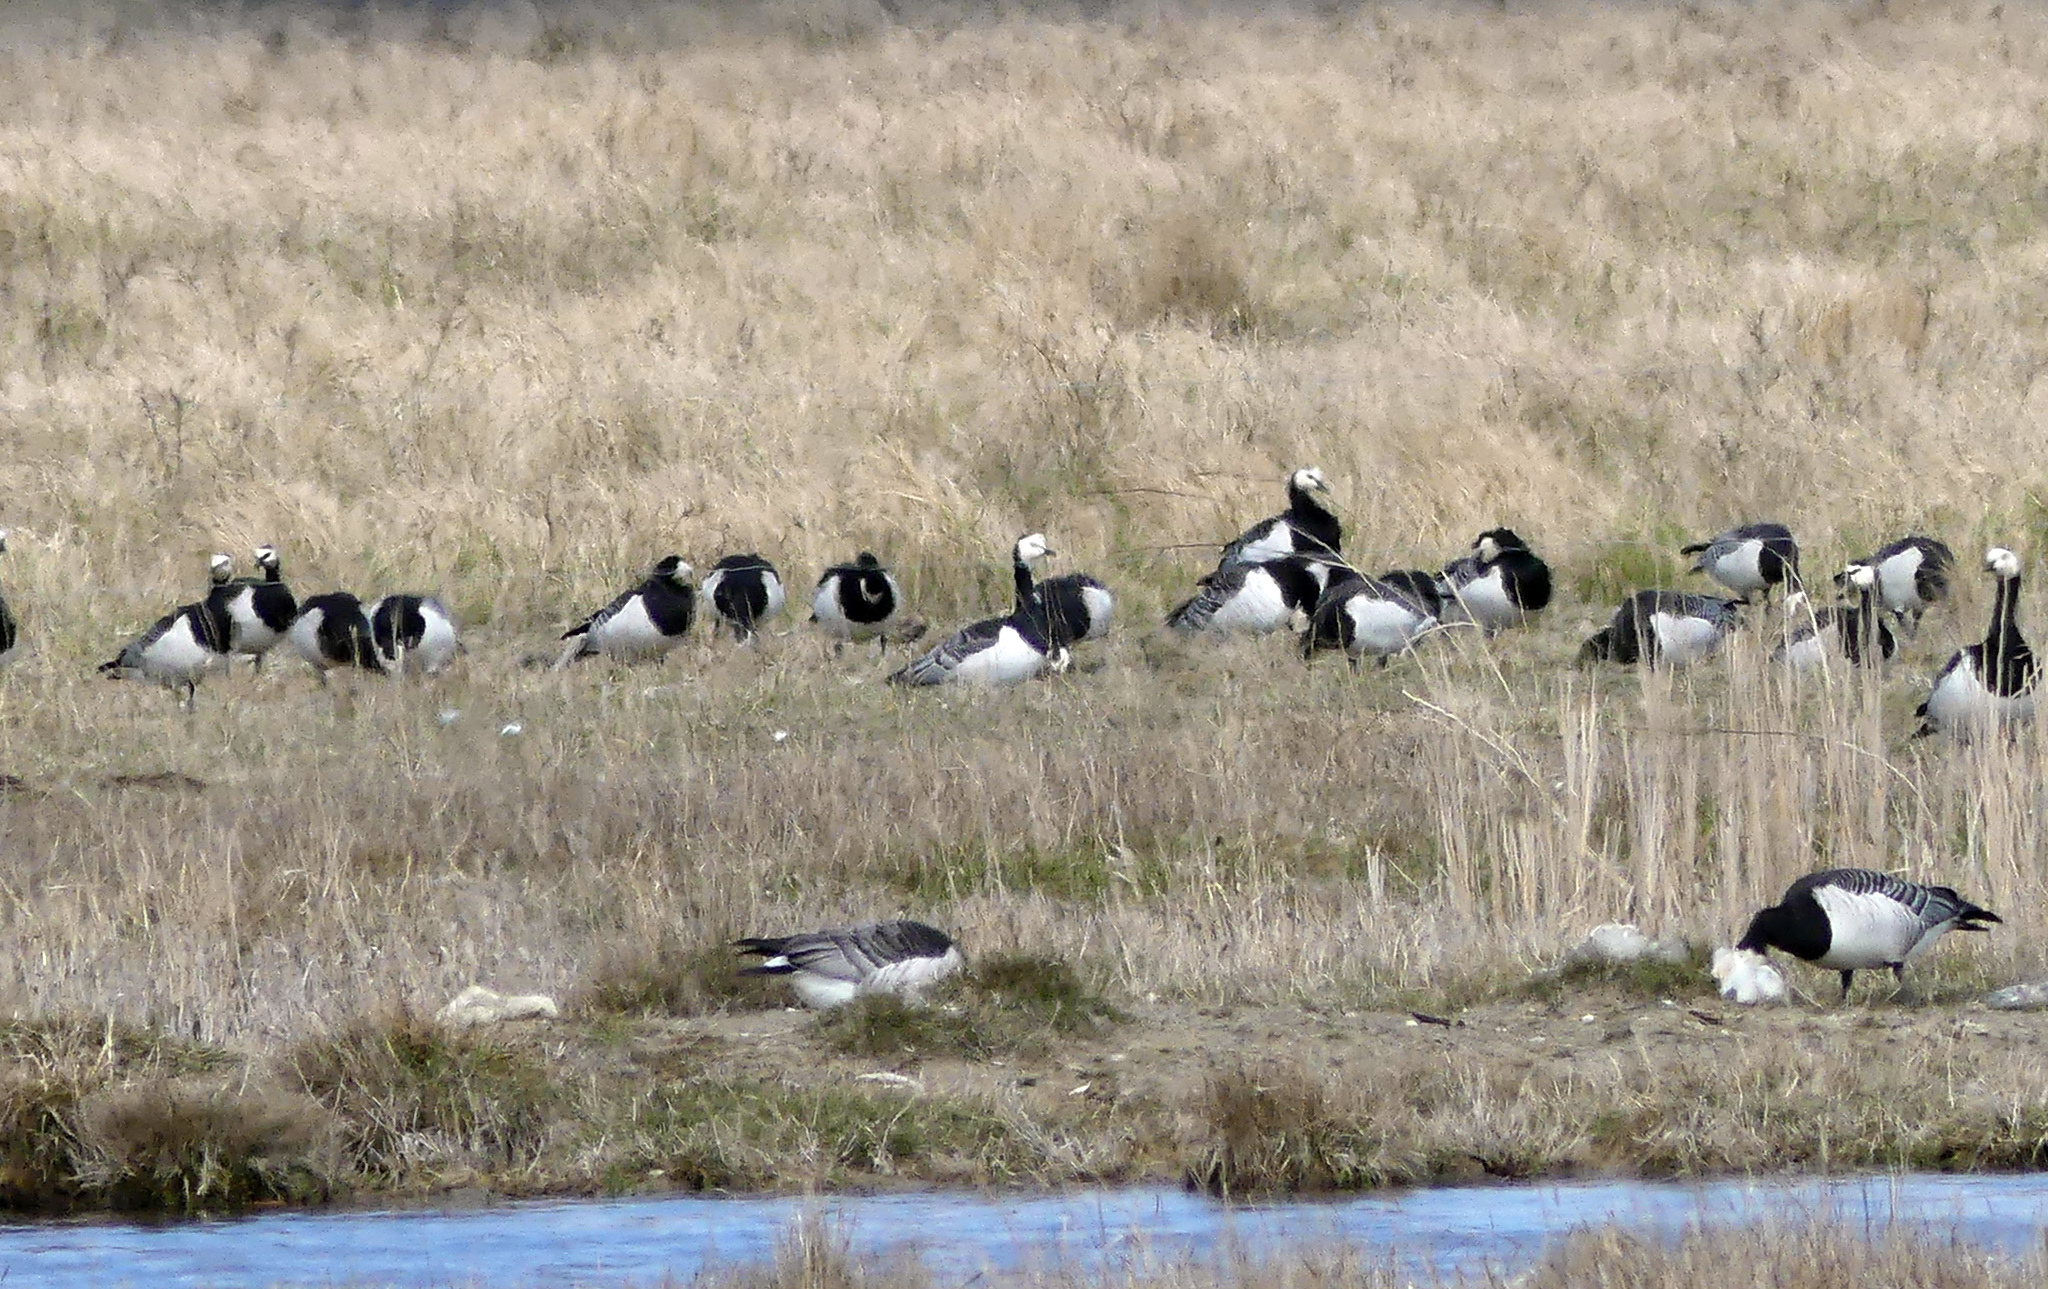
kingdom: Animalia
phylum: Chordata
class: Aves
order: Anseriformes
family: Anatidae
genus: Branta
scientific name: Branta leucopsis
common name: Barnacle goose
